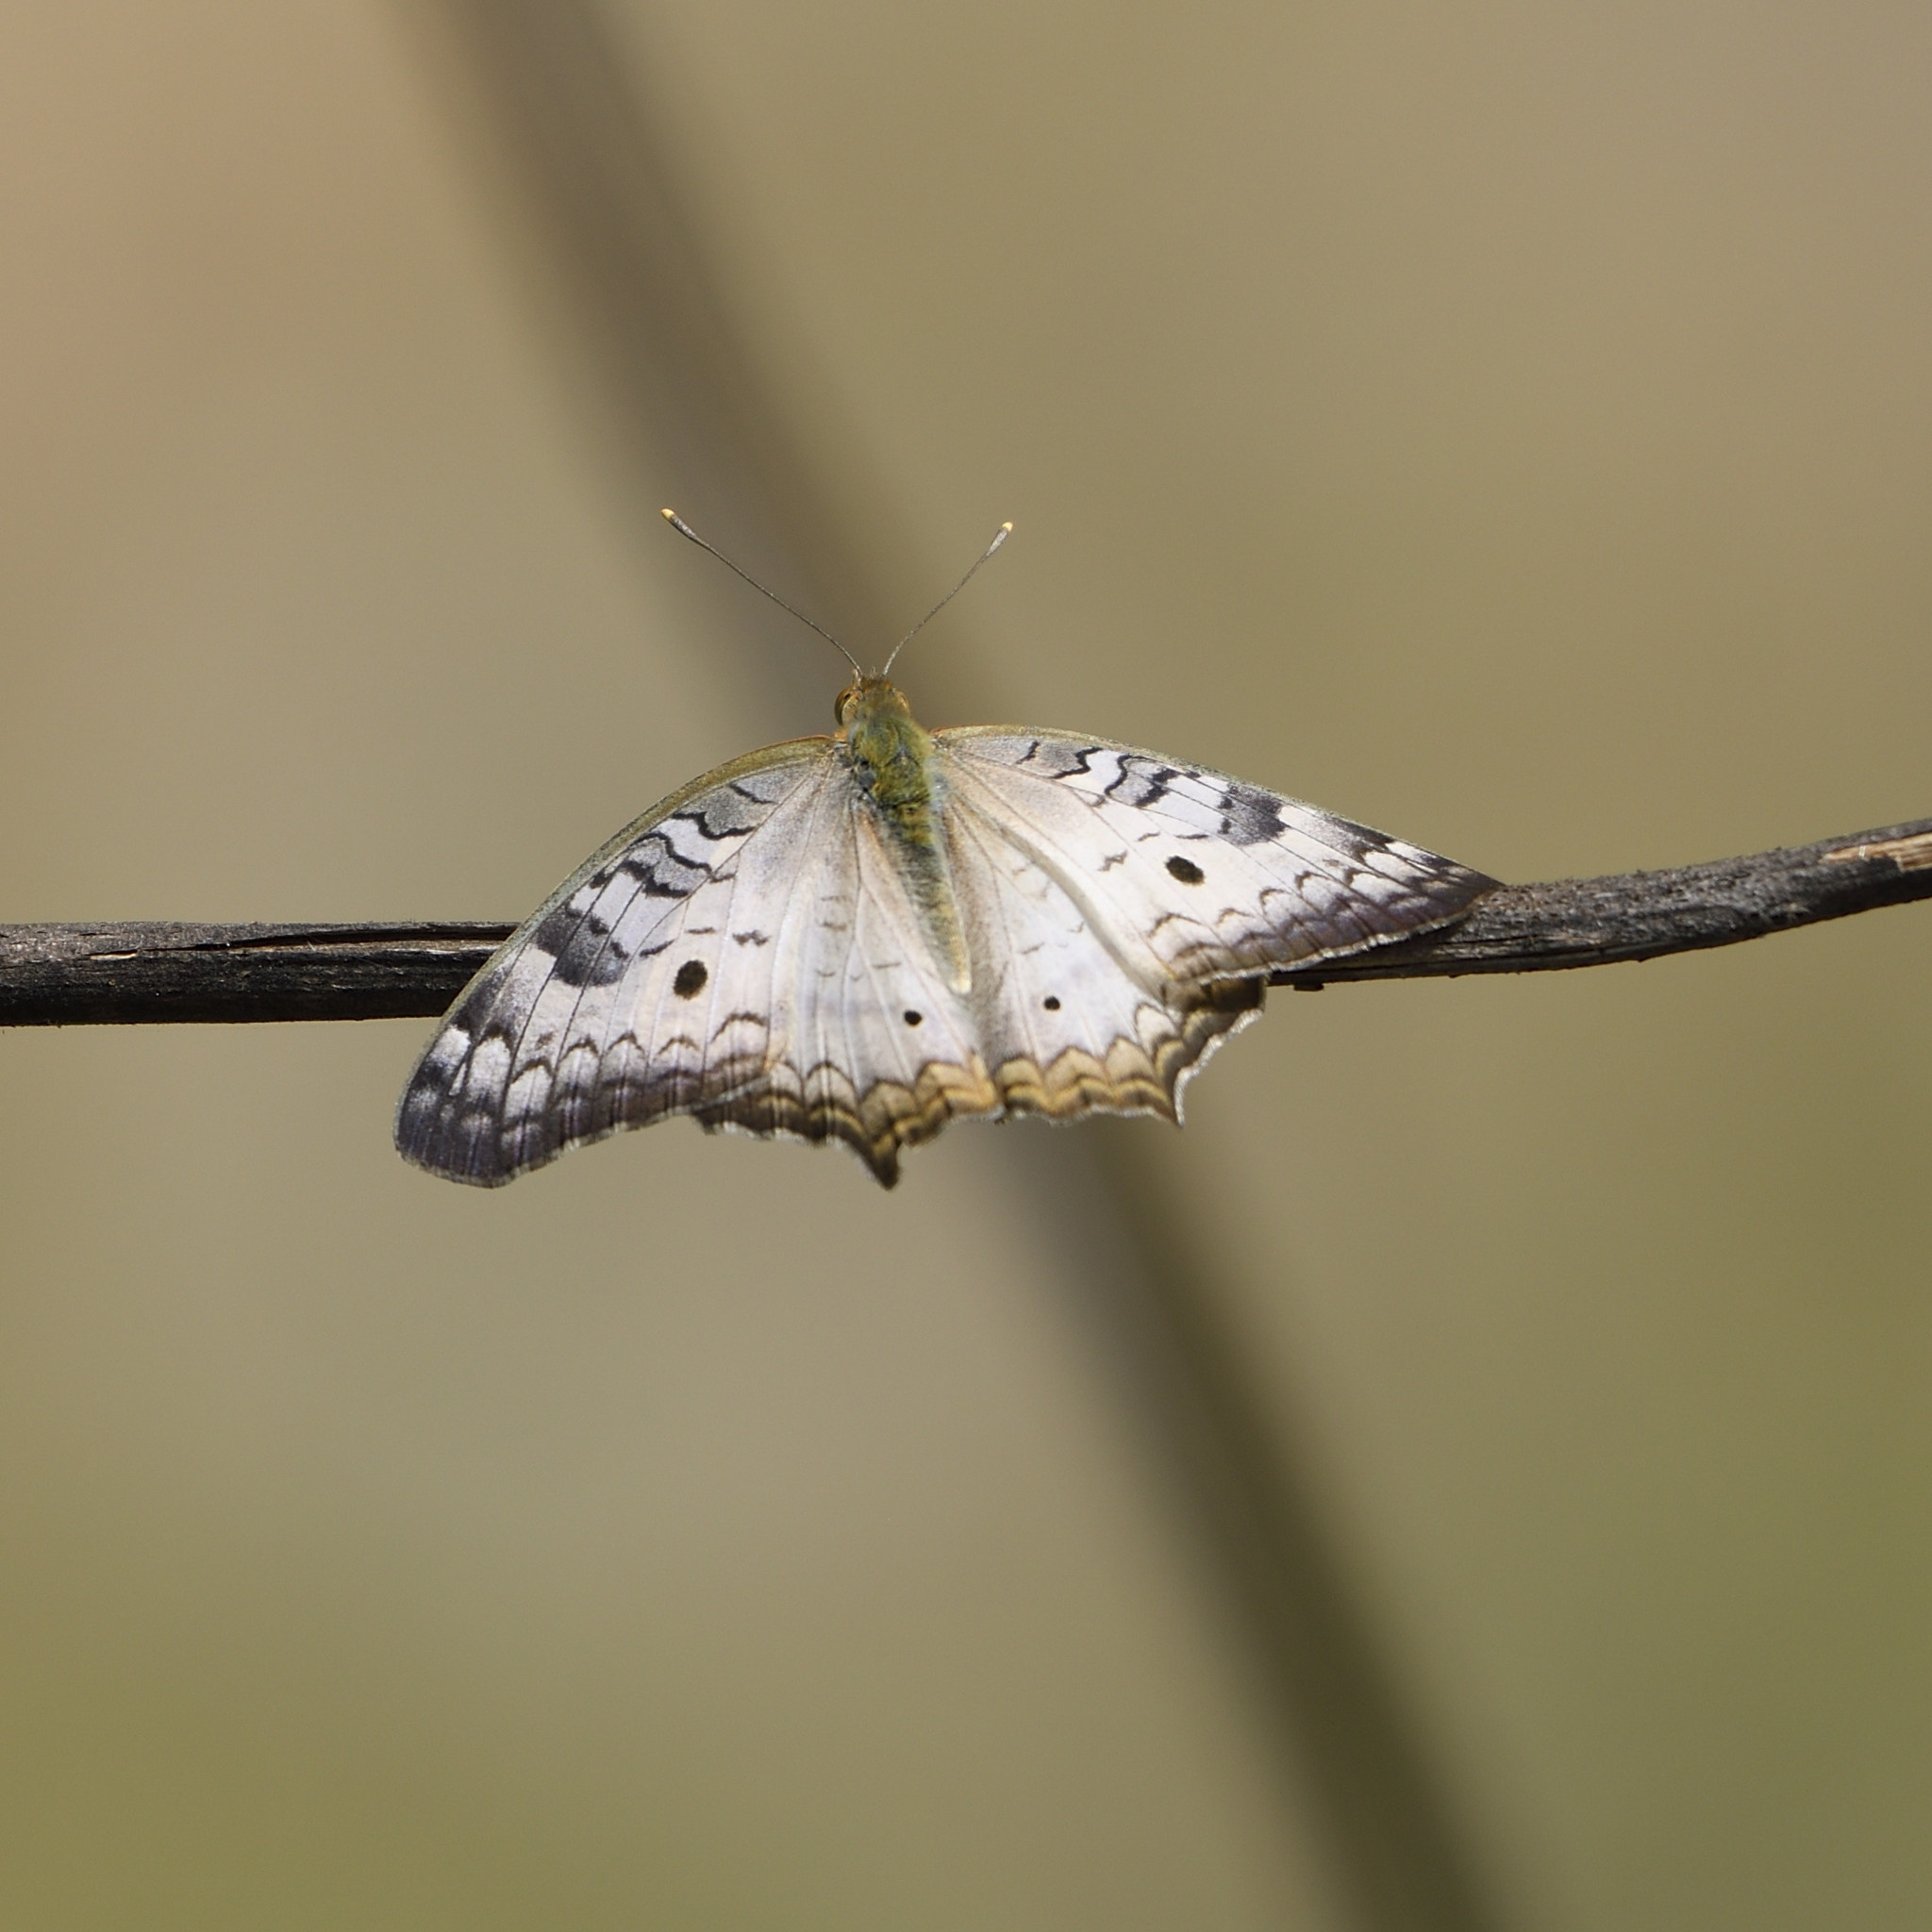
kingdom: Animalia
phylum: Arthropoda
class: Insecta
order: Lepidoptera
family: Nymphalidae
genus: Anartia
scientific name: Anartia jatrophae
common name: White peacock
